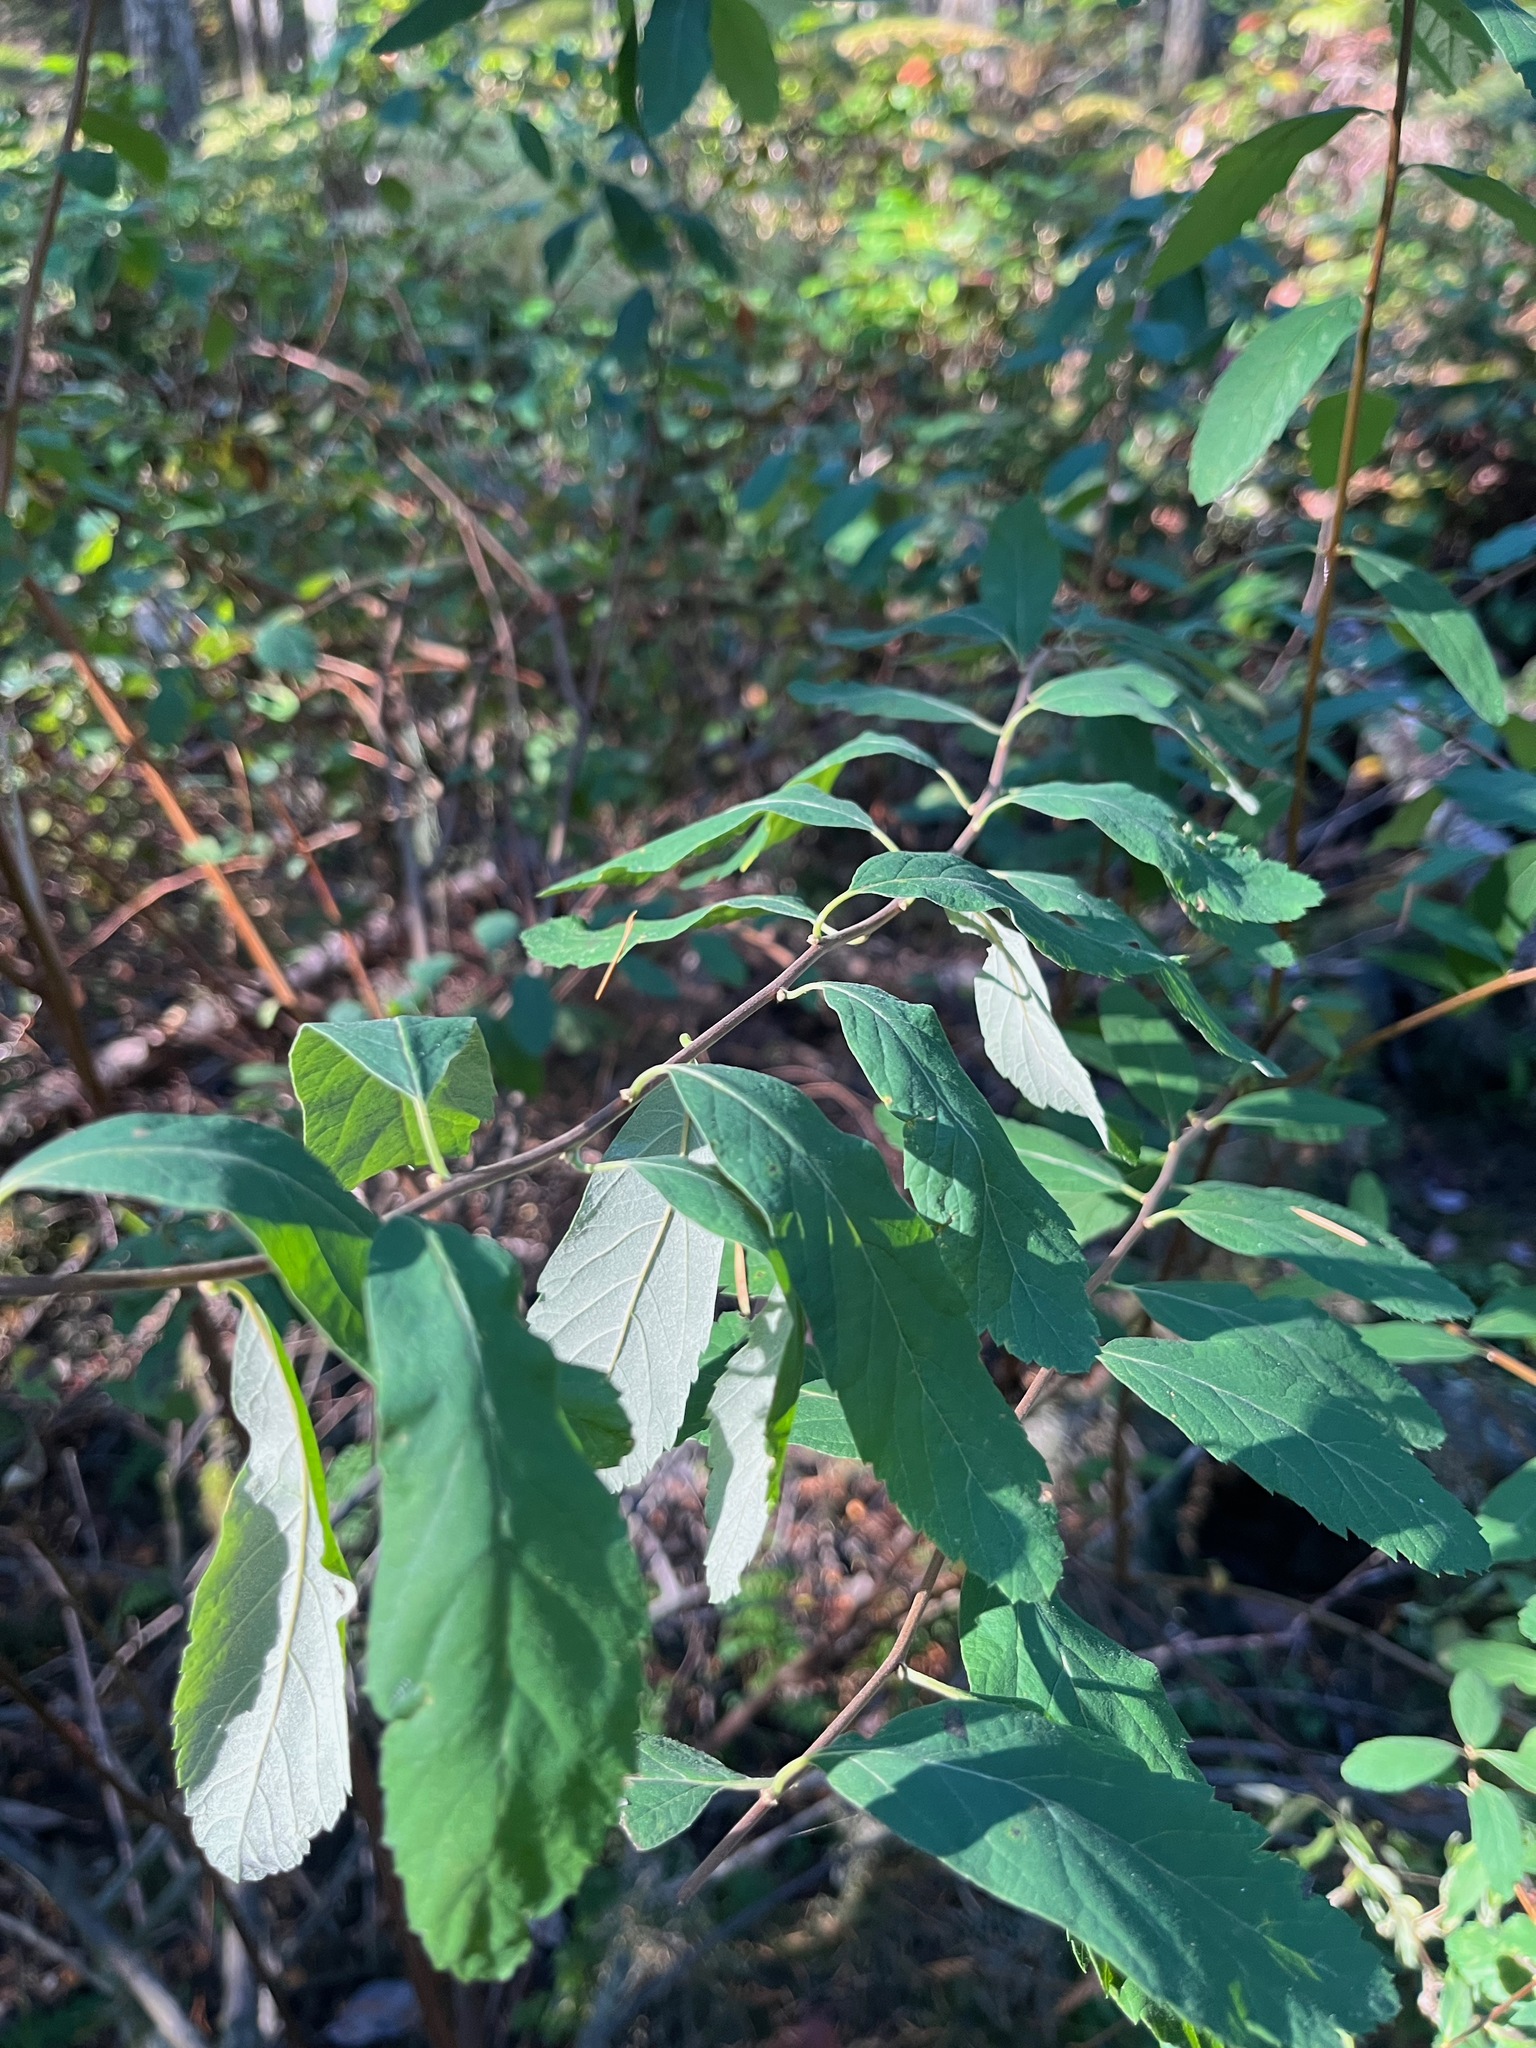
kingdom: Plantae
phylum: Tracheophyta
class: Magnoliopsida
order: Rosales
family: Rosaceae
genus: Spiraea
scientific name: Spiraea douglasii
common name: Steeplebush
